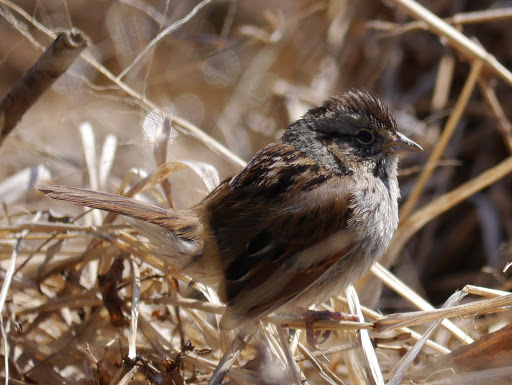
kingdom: Animalia
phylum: Chordata
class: Aves
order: Passeriformes
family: Passerellidae
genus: Melospiza
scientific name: Melospiza georgiana
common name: Swamp sparrow
